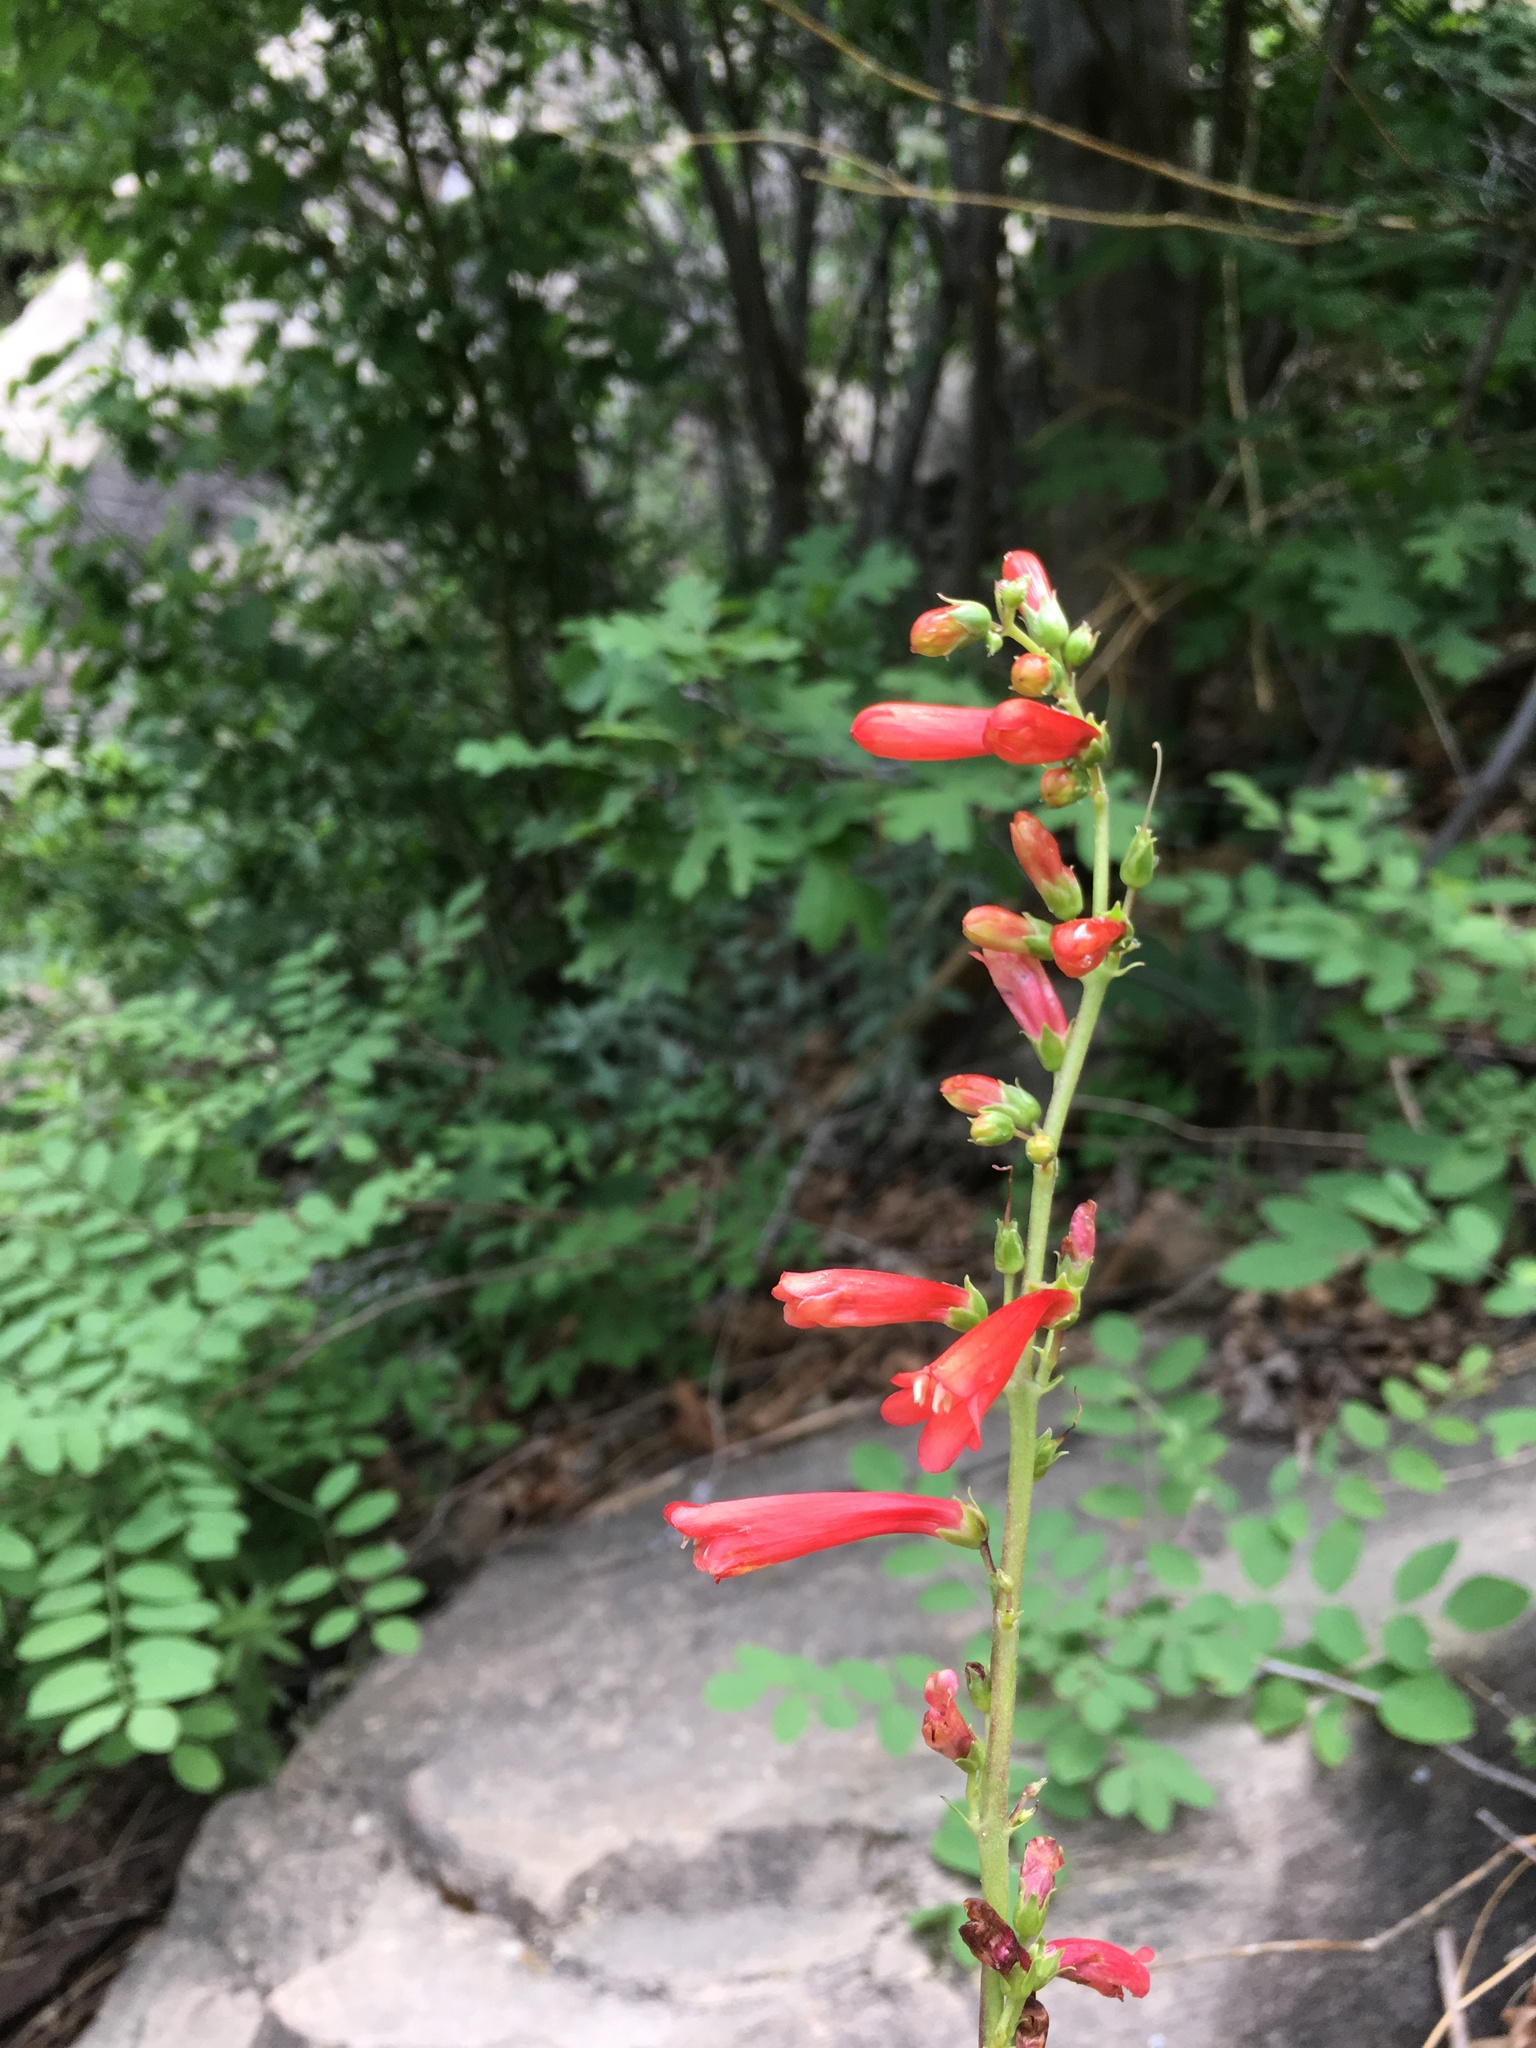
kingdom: Plantae
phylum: Tracheophyta
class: Magnoliopsida
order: Lamiales
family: Plantaginaceae
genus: Penstemon
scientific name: Penstemon eatonii
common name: Eaton's penstemon
